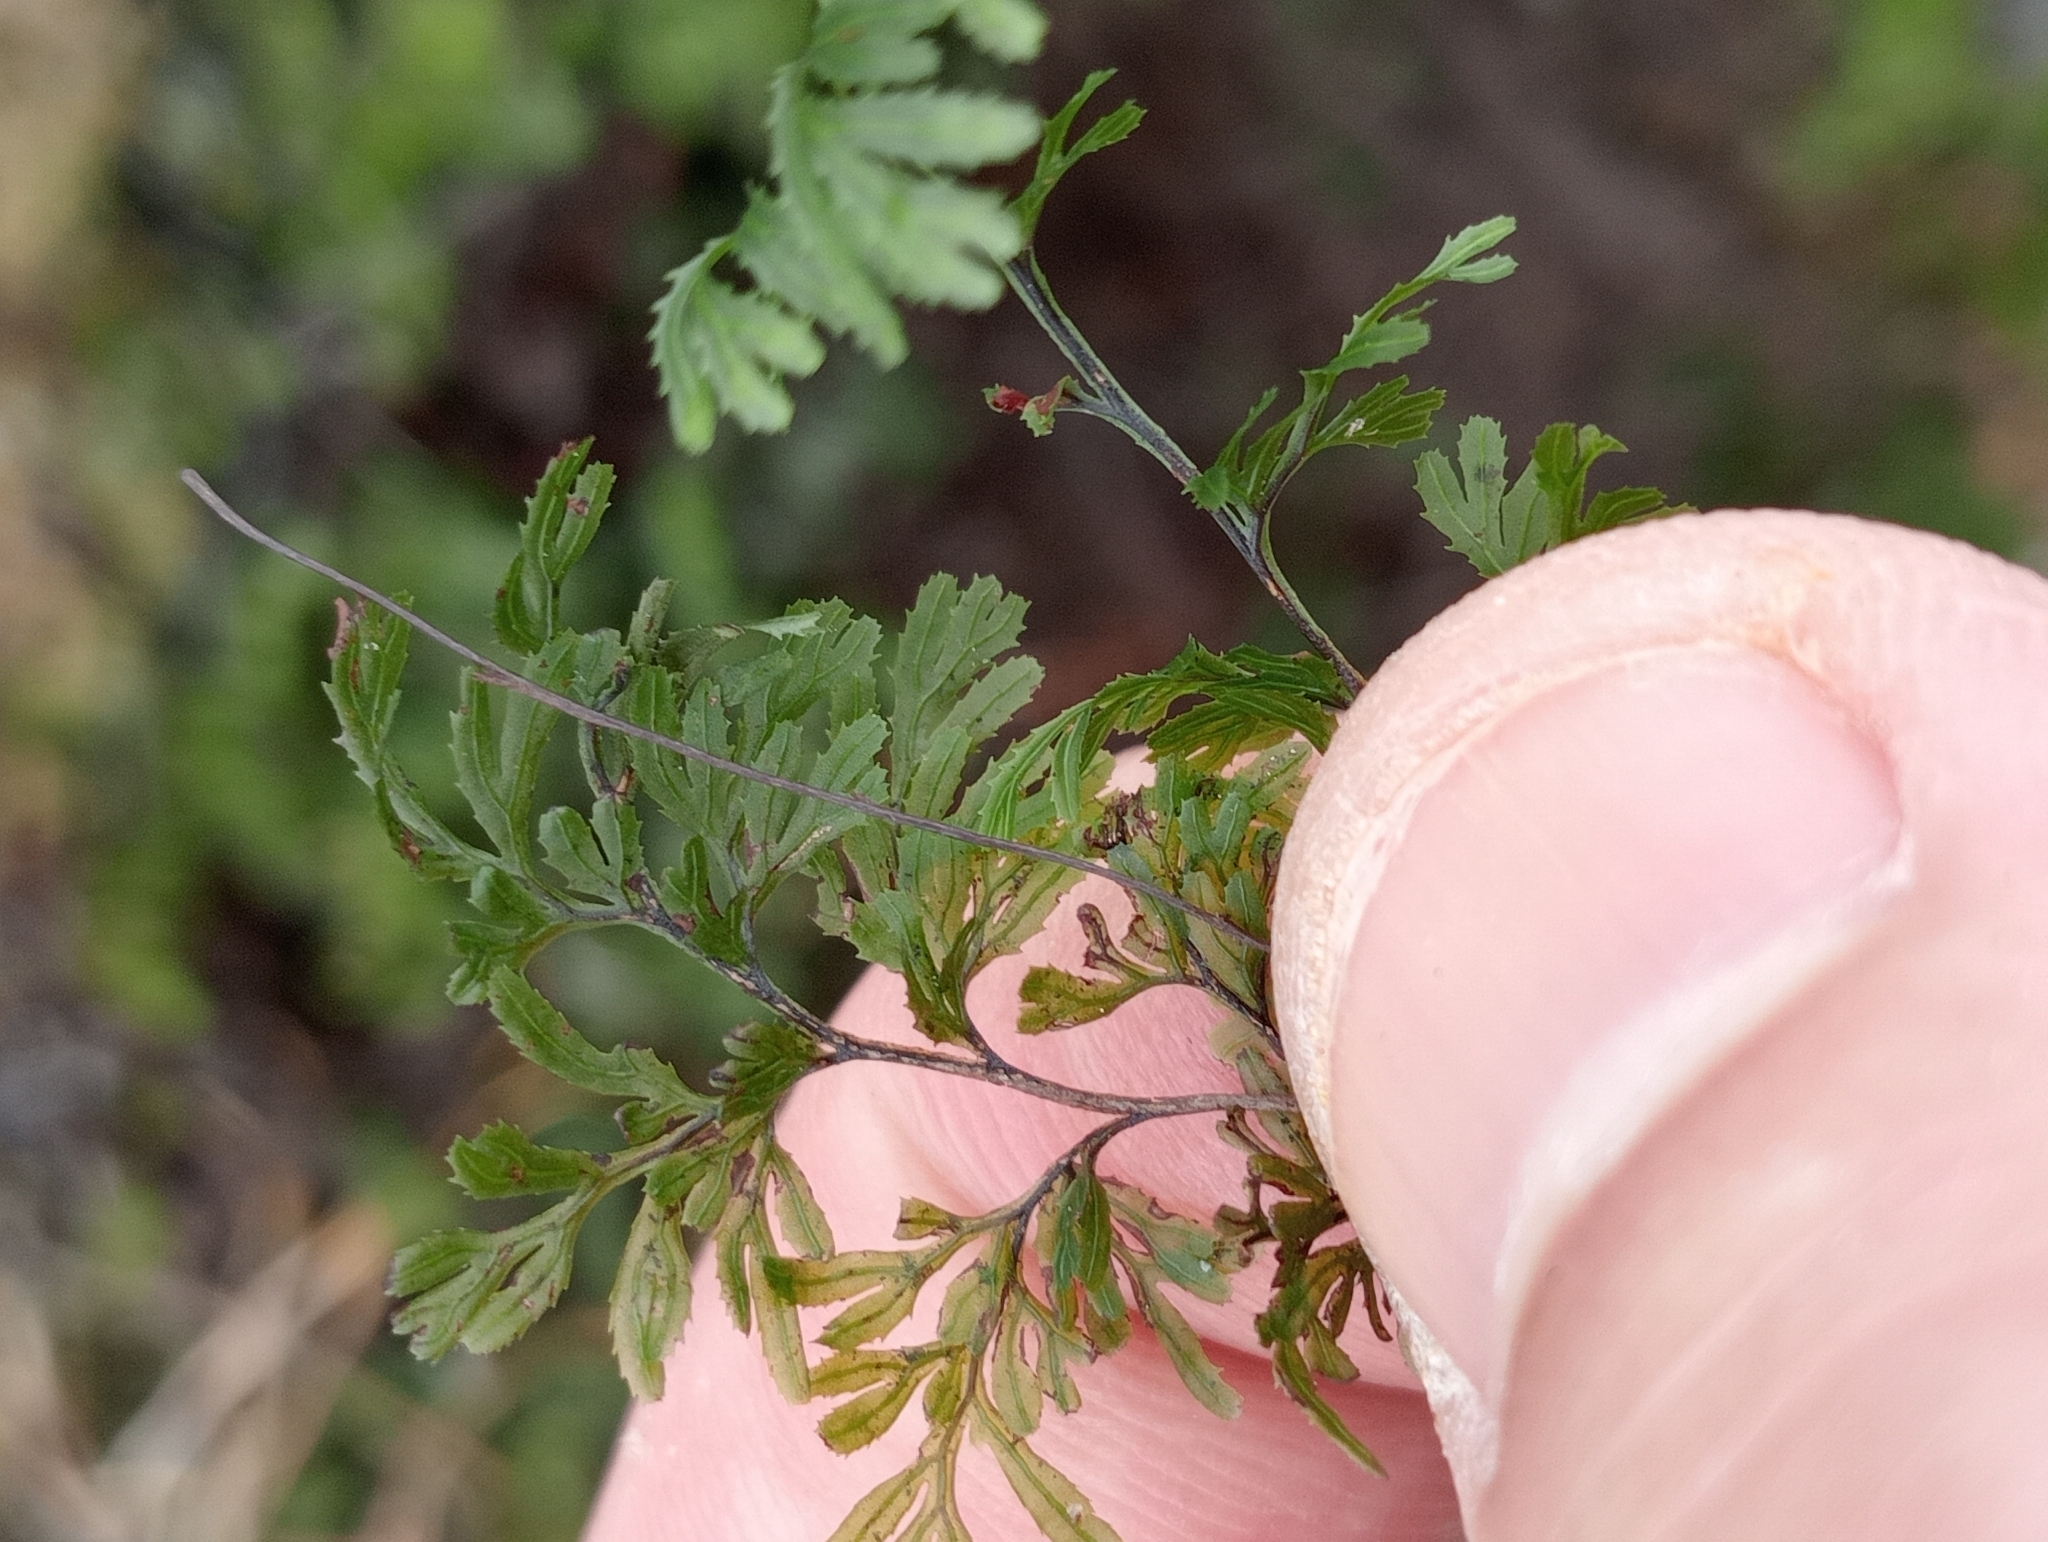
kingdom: Plantae
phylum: Tracheophyta
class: Polypodiopsida
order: Hymenophyllales
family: Hymenophyllaceae
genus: Hymenophyllum
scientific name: Hymenophyllum multifidum
